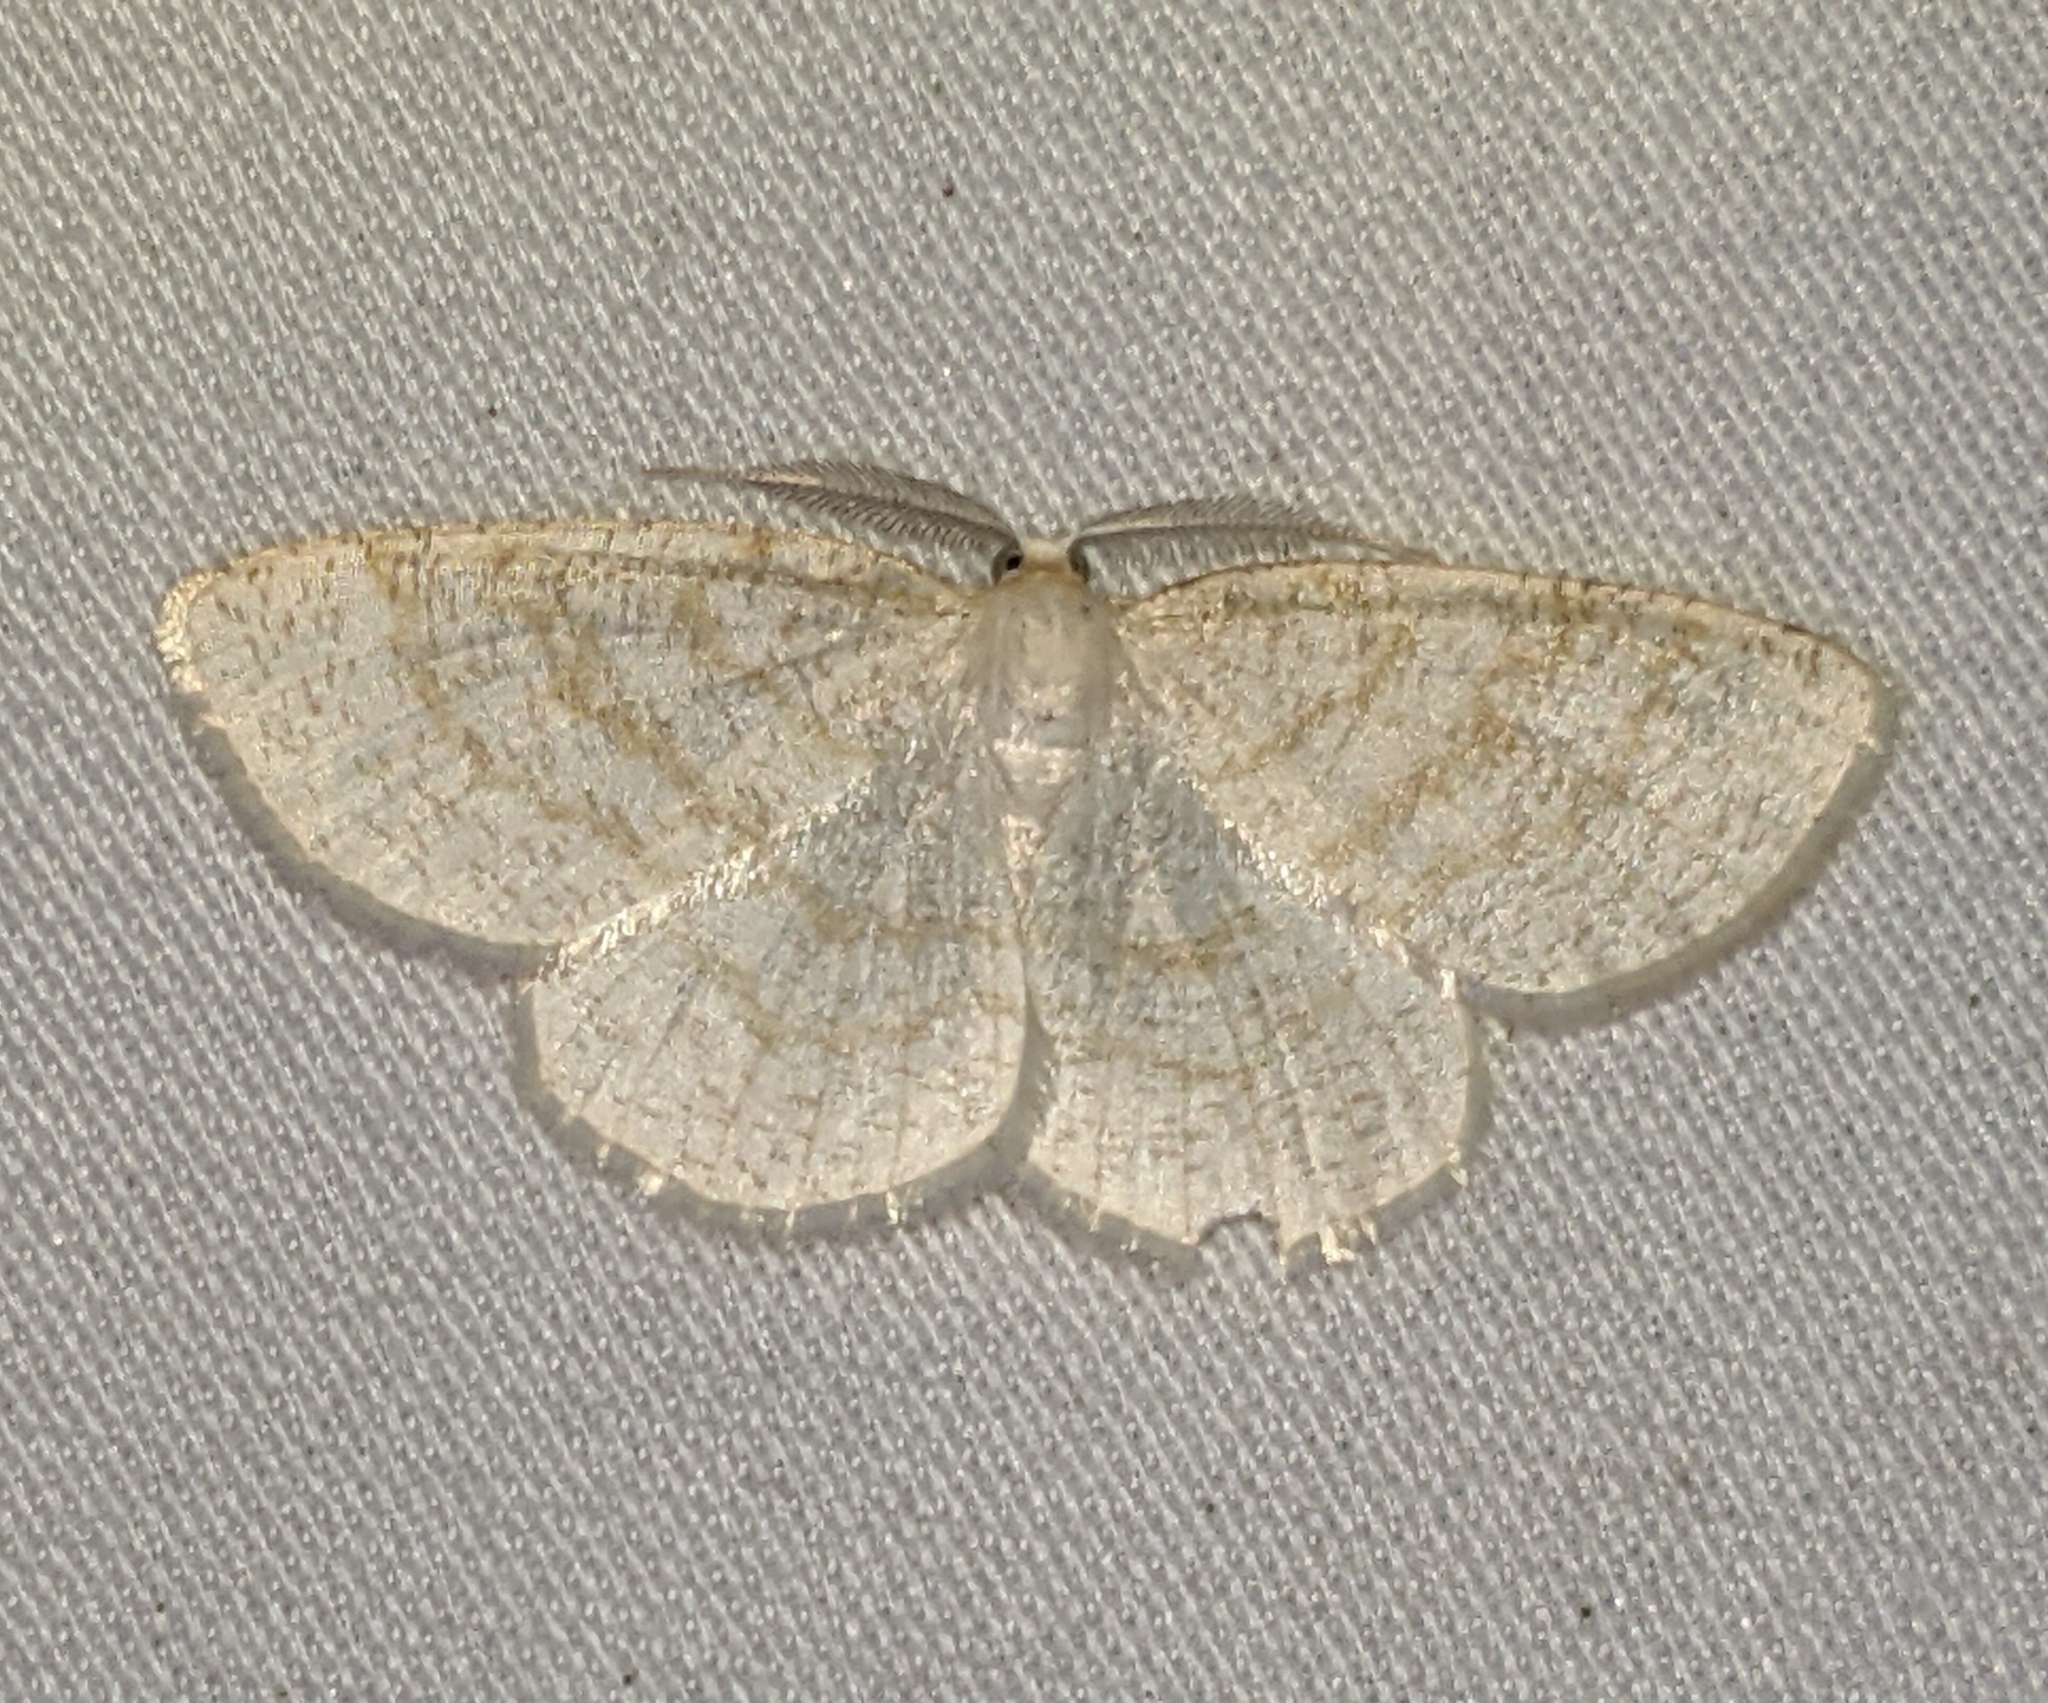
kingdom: Animalia
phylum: Arthropoda
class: Insecta
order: Lepidoptera
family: Geometridae
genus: Cabera
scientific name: Cabera erythemaria
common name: Yellow-dusted cream moth
